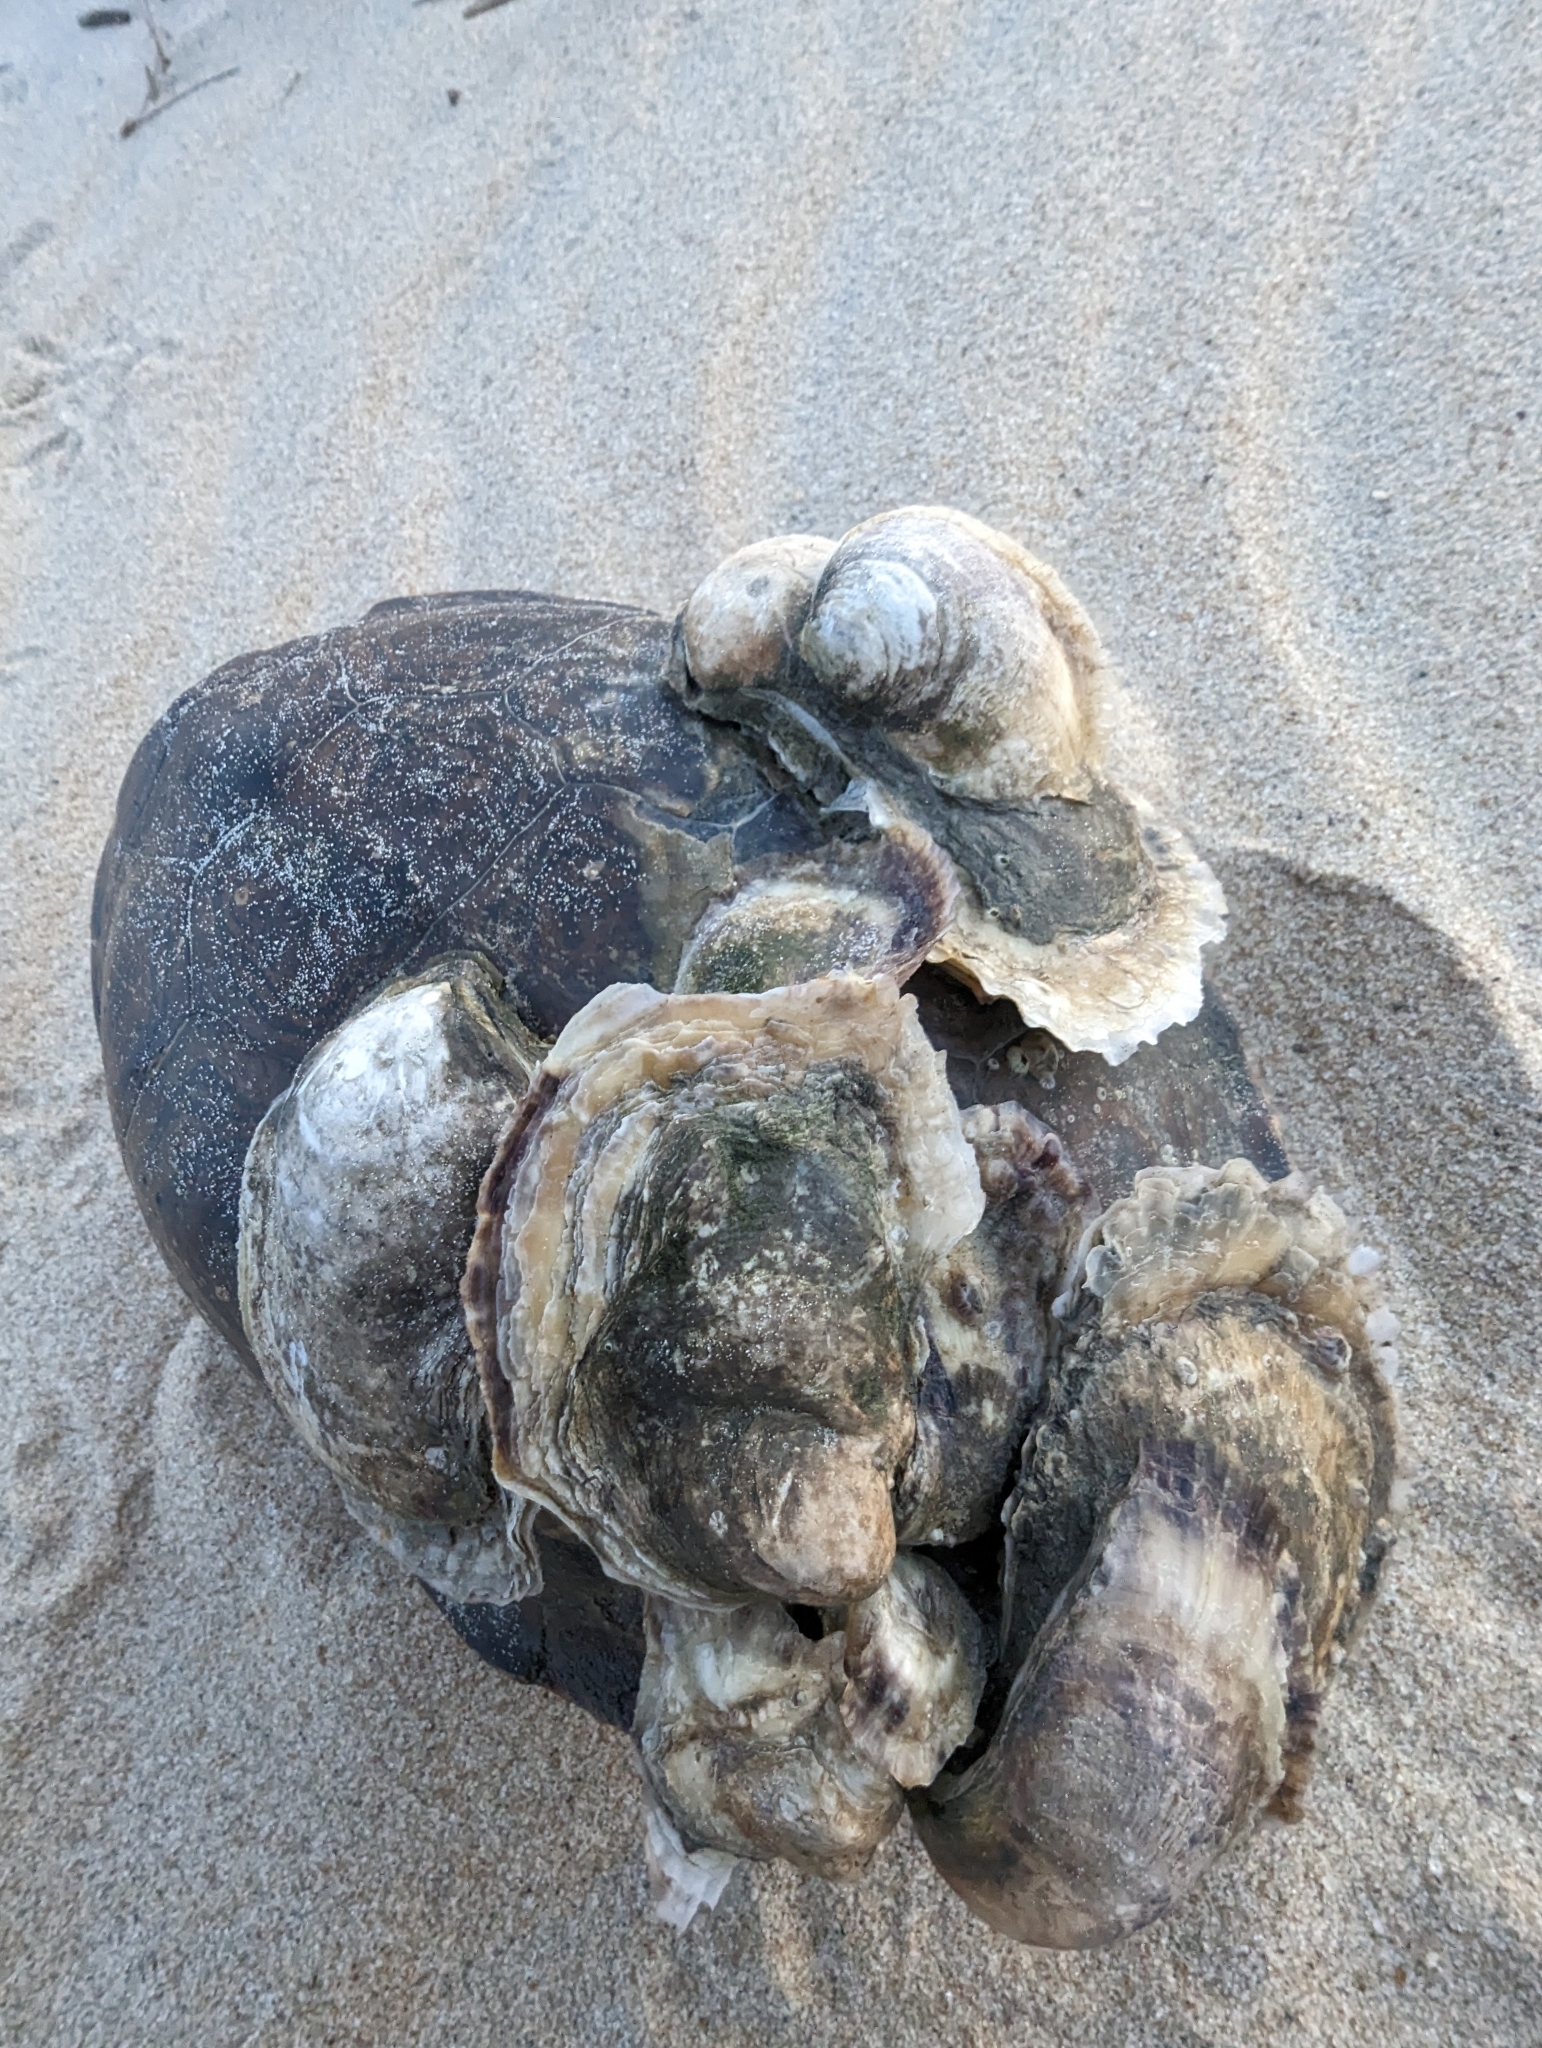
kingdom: Animalia
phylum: Mollusca
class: Bivalvia
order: Ostreida
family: Ostreidae
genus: Crassostrea
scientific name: Crassostrea virginica
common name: American oyster
